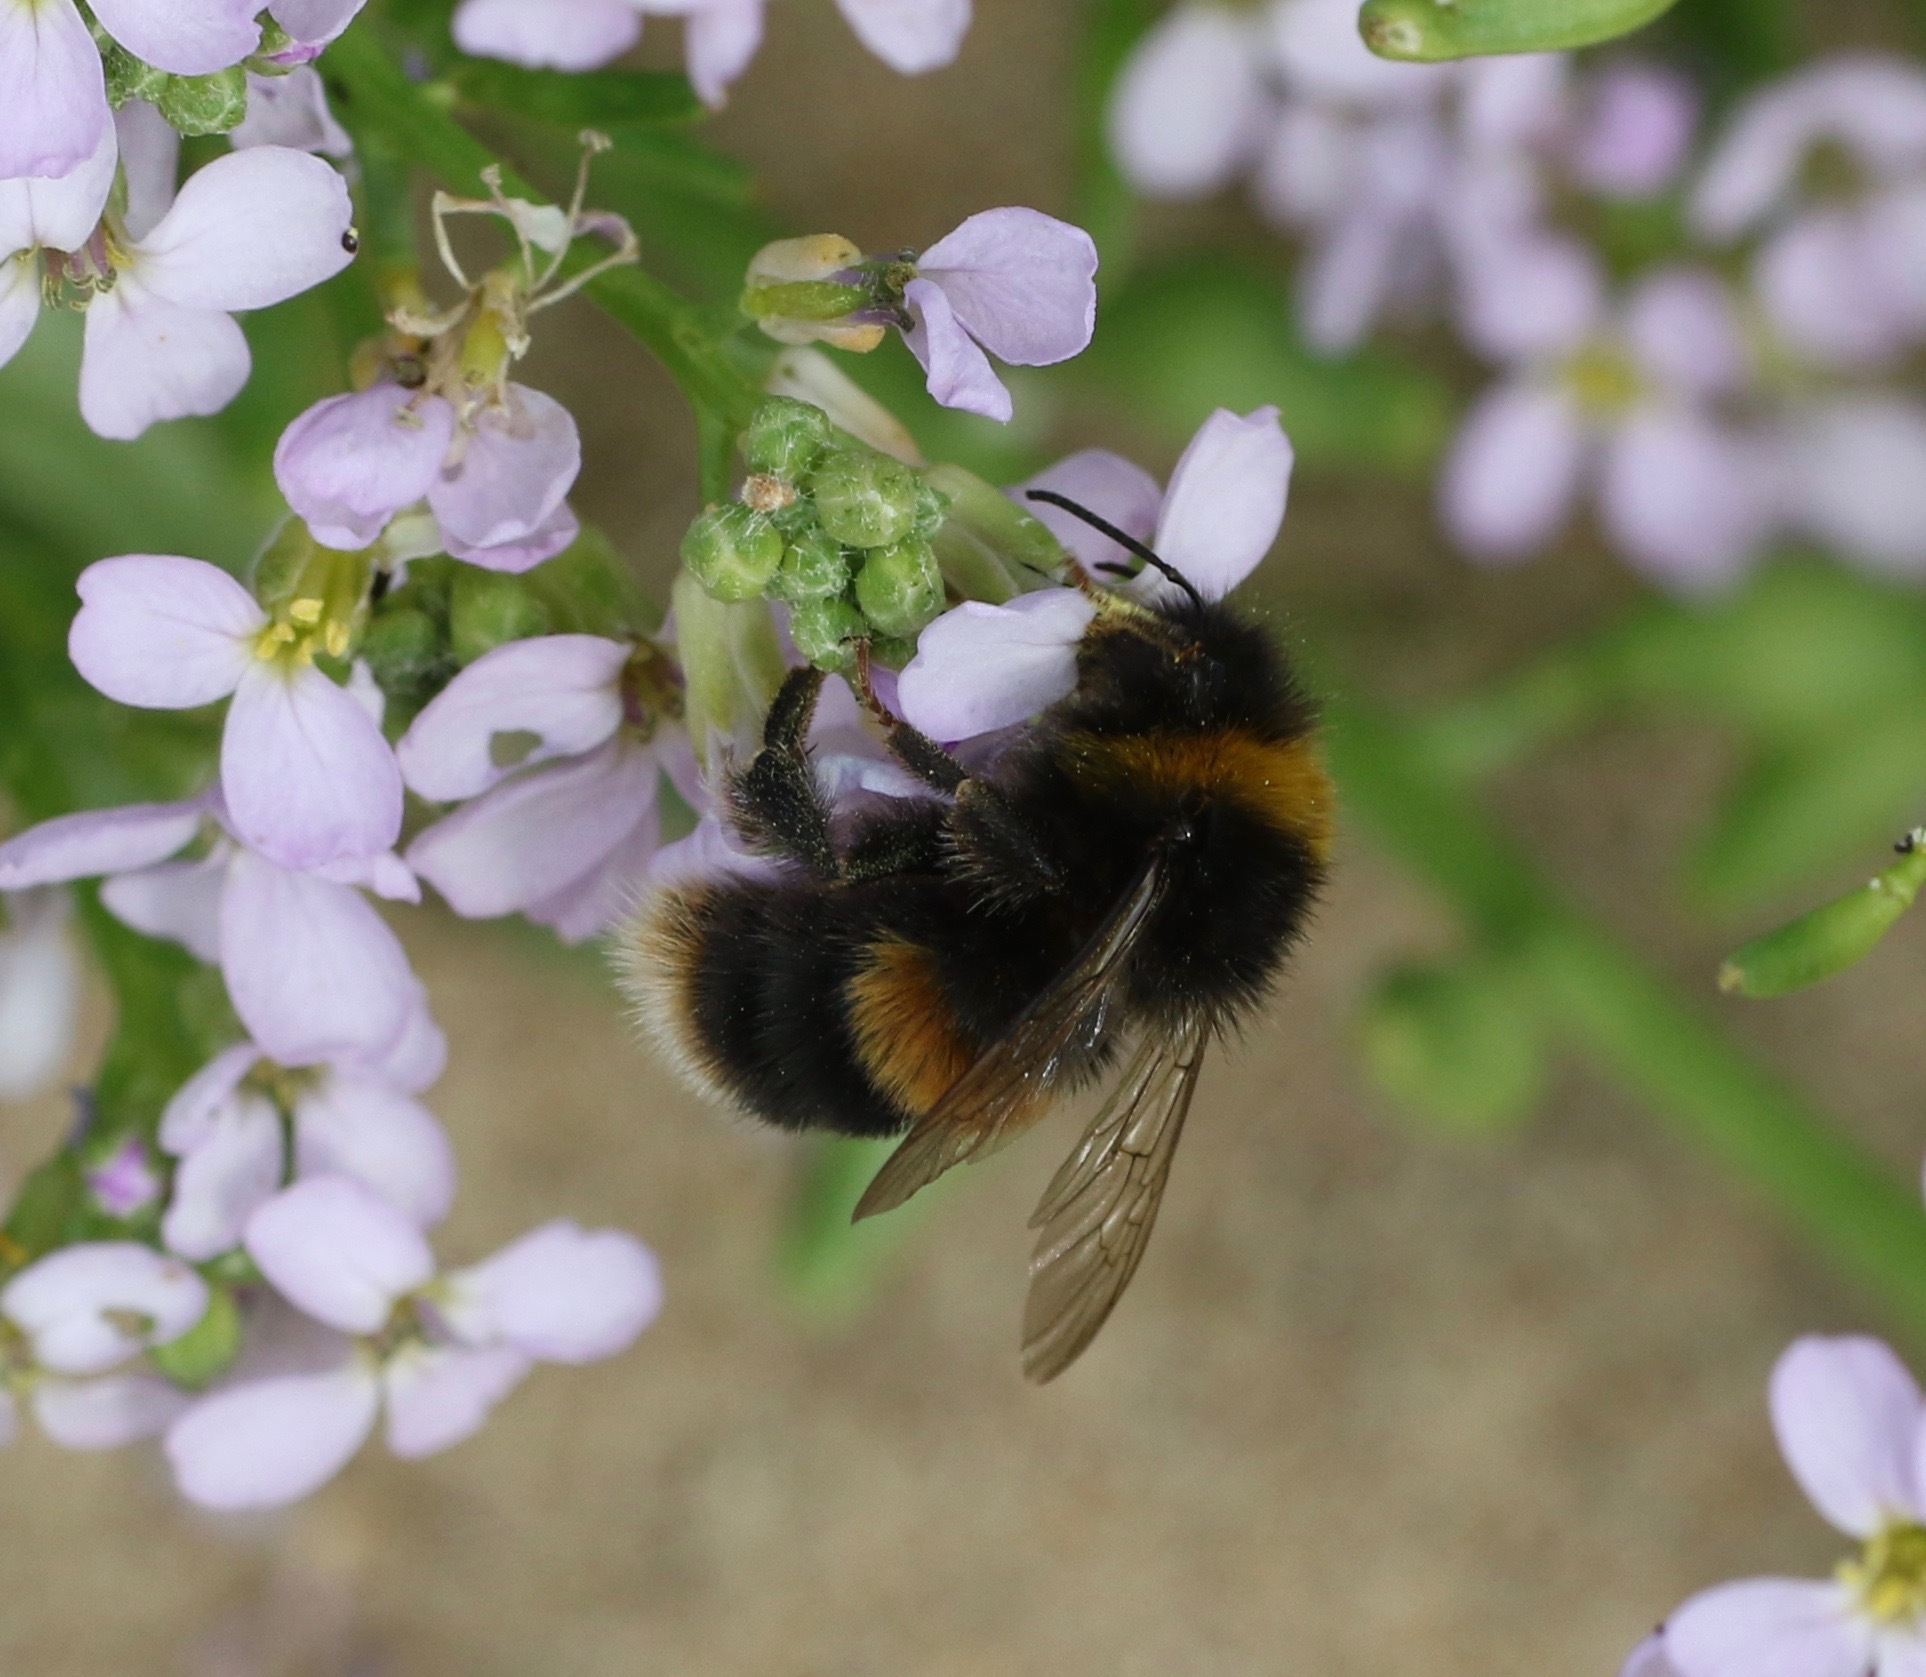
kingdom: Animalia
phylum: Arthropoda
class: Insecta
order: Hymenoptera
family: Apidae
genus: Bombus
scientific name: Bombus terrestris
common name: Buff-tailed bumblebee
